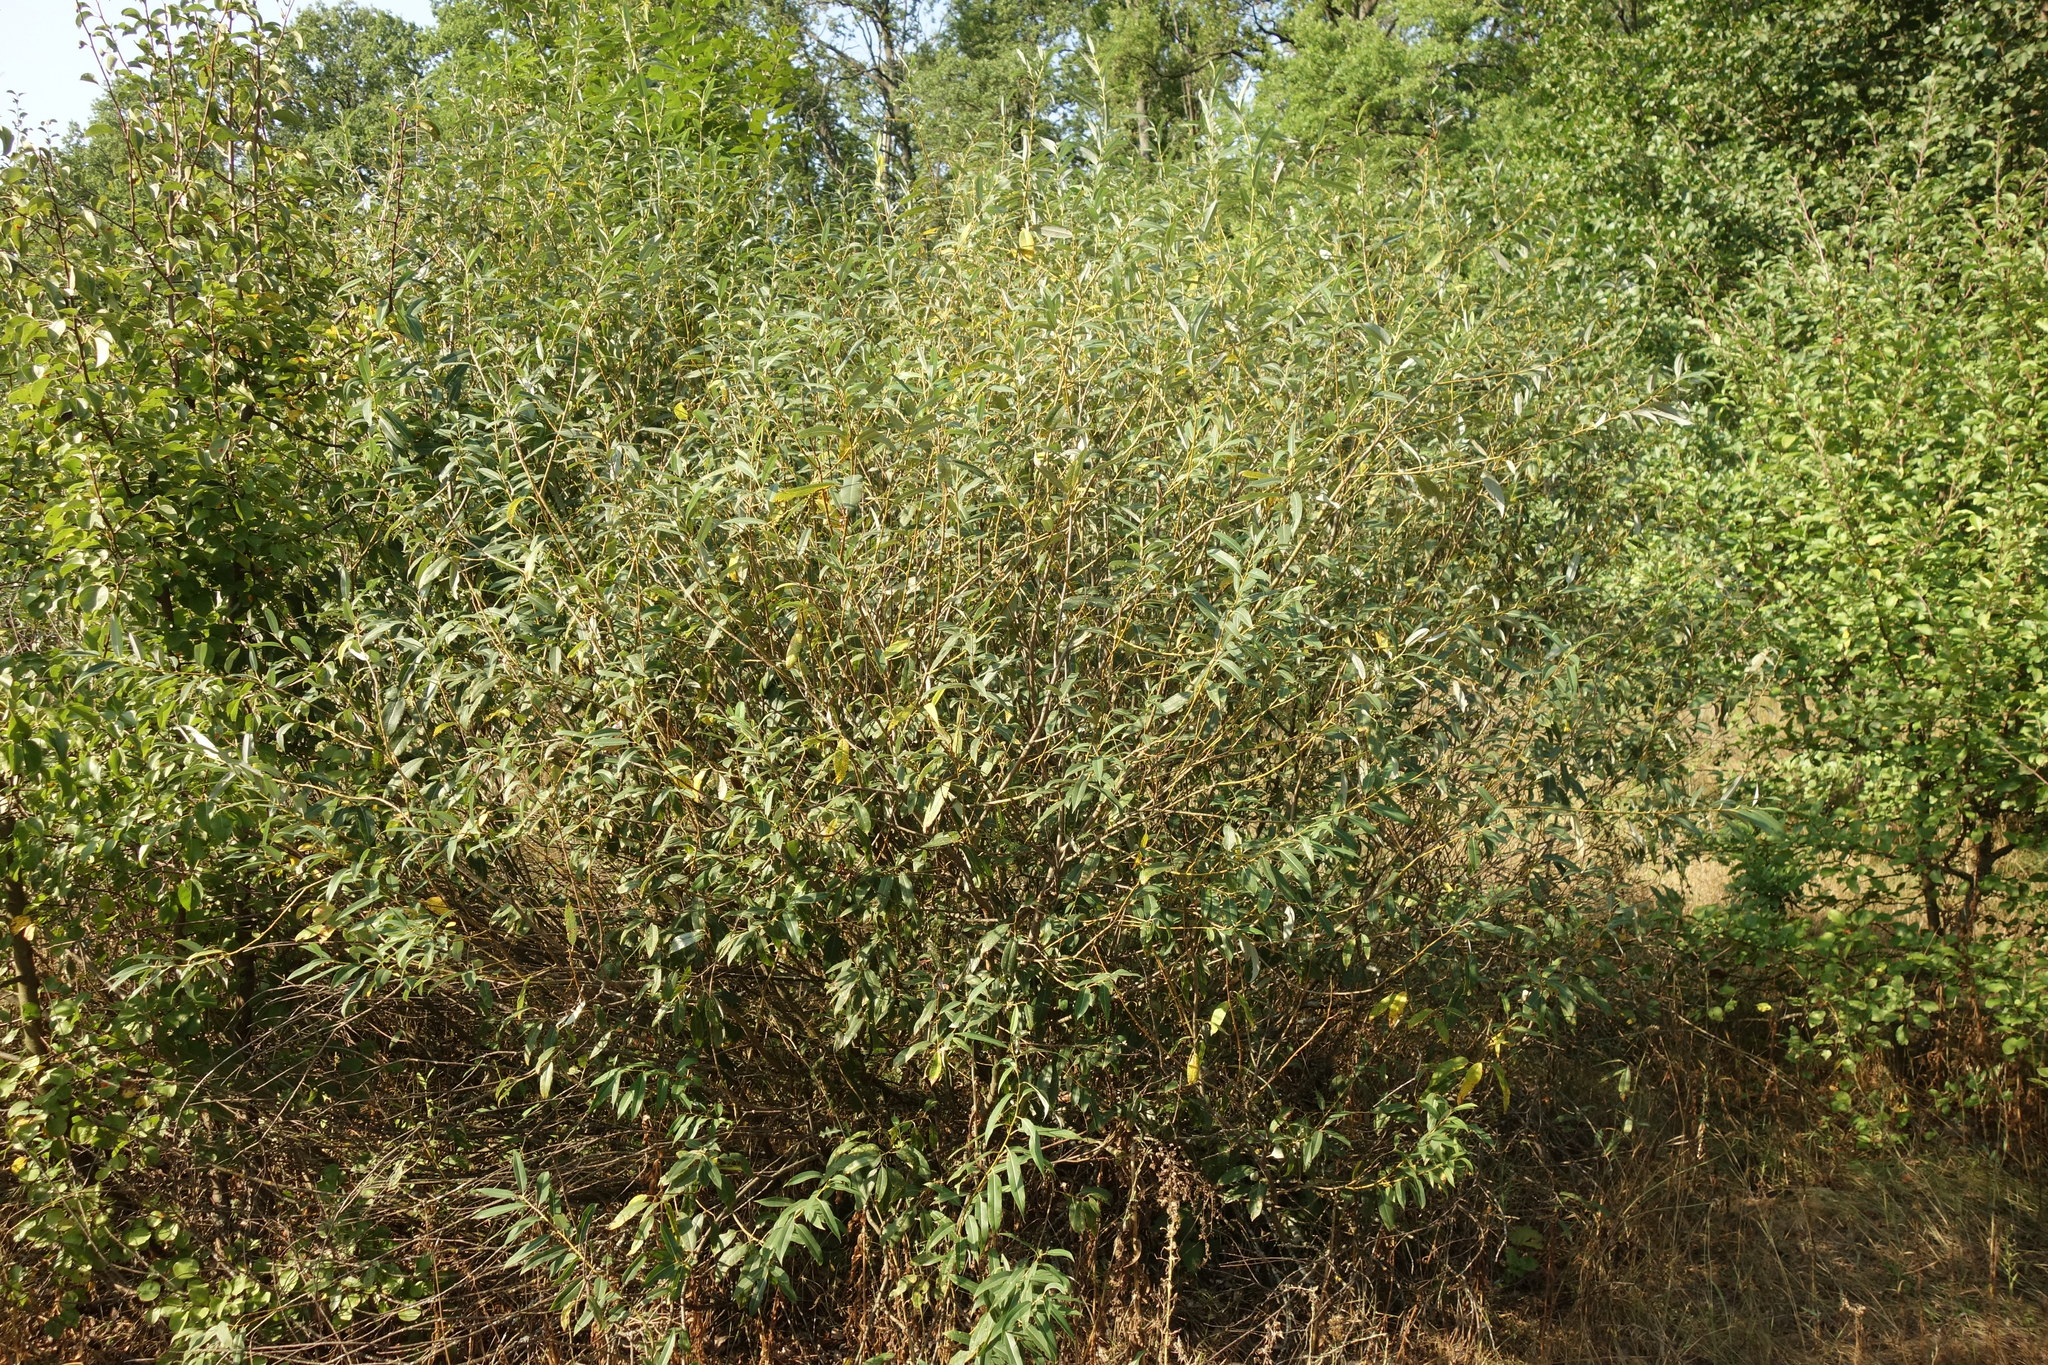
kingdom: Plantae
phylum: Tracheophyta
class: Magnoliopsida
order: Malpighiales
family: Salicaceae
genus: Salix
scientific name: Salix triandra
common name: Almond willow
